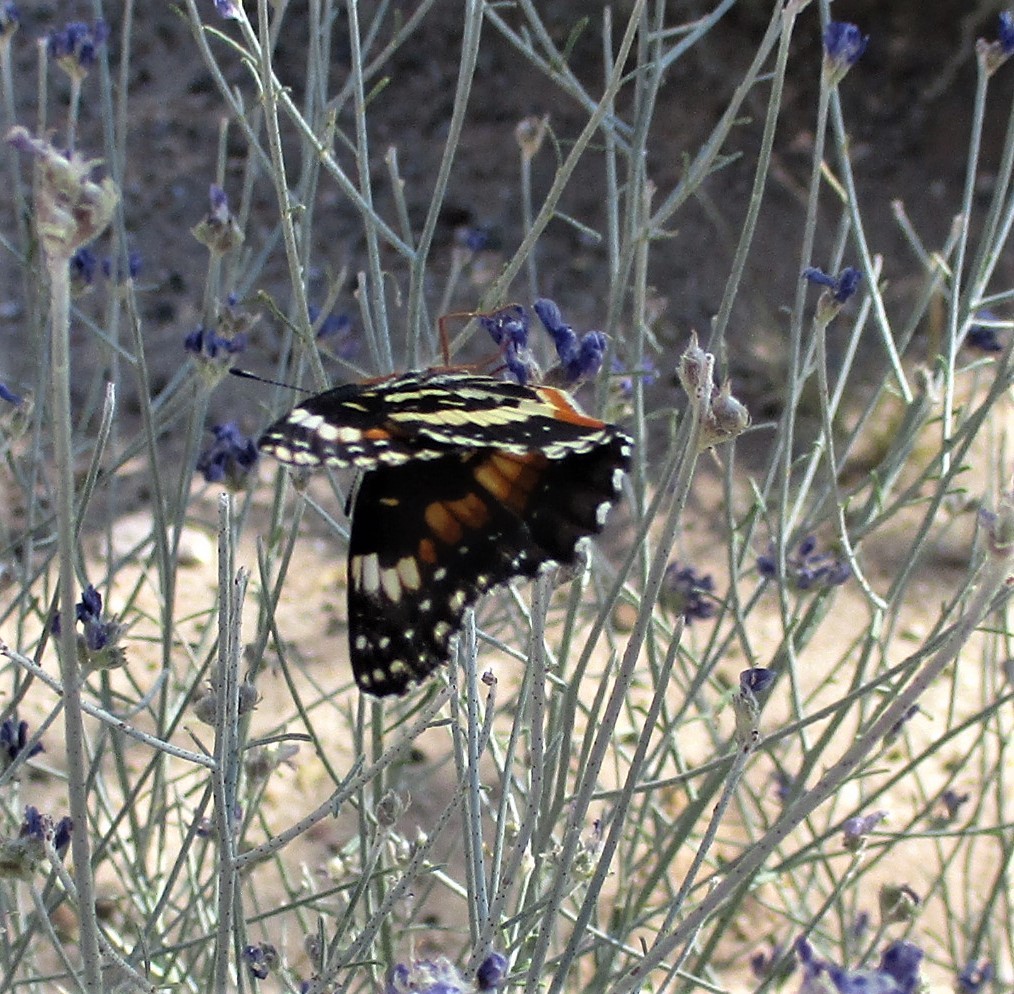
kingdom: Animalia
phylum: Arthropoda
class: Insecta
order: Lepidoptera
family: Nymphalidae
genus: Chlosyne
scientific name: Chlosyne lacinia
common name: Bordered patch
